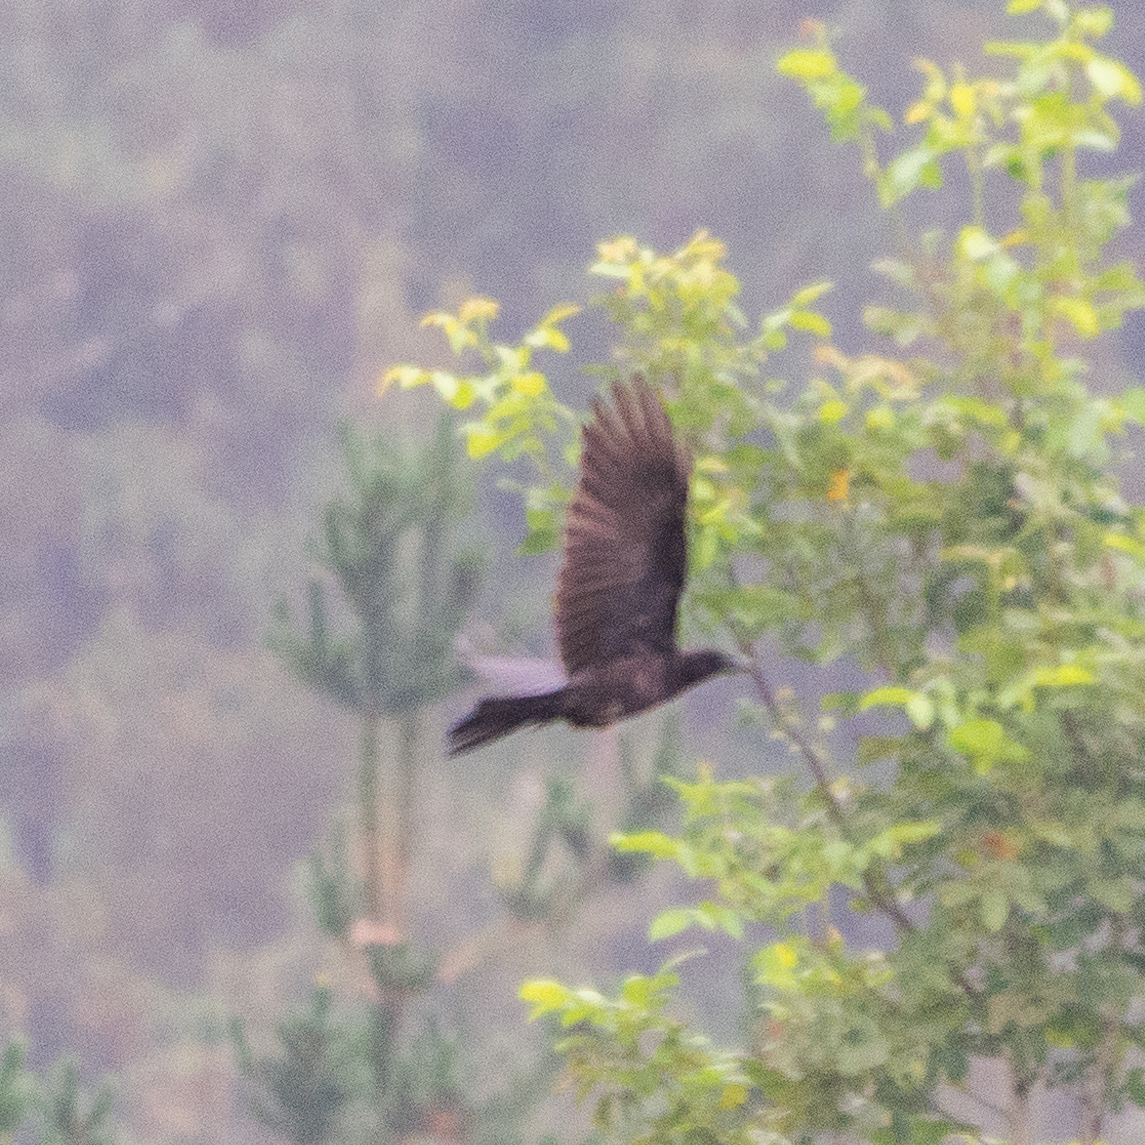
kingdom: Animalia
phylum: Chordata
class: Aves
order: Passeriformes
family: Corvidae
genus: Corvus
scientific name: Corvus corone
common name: Carrion crow
